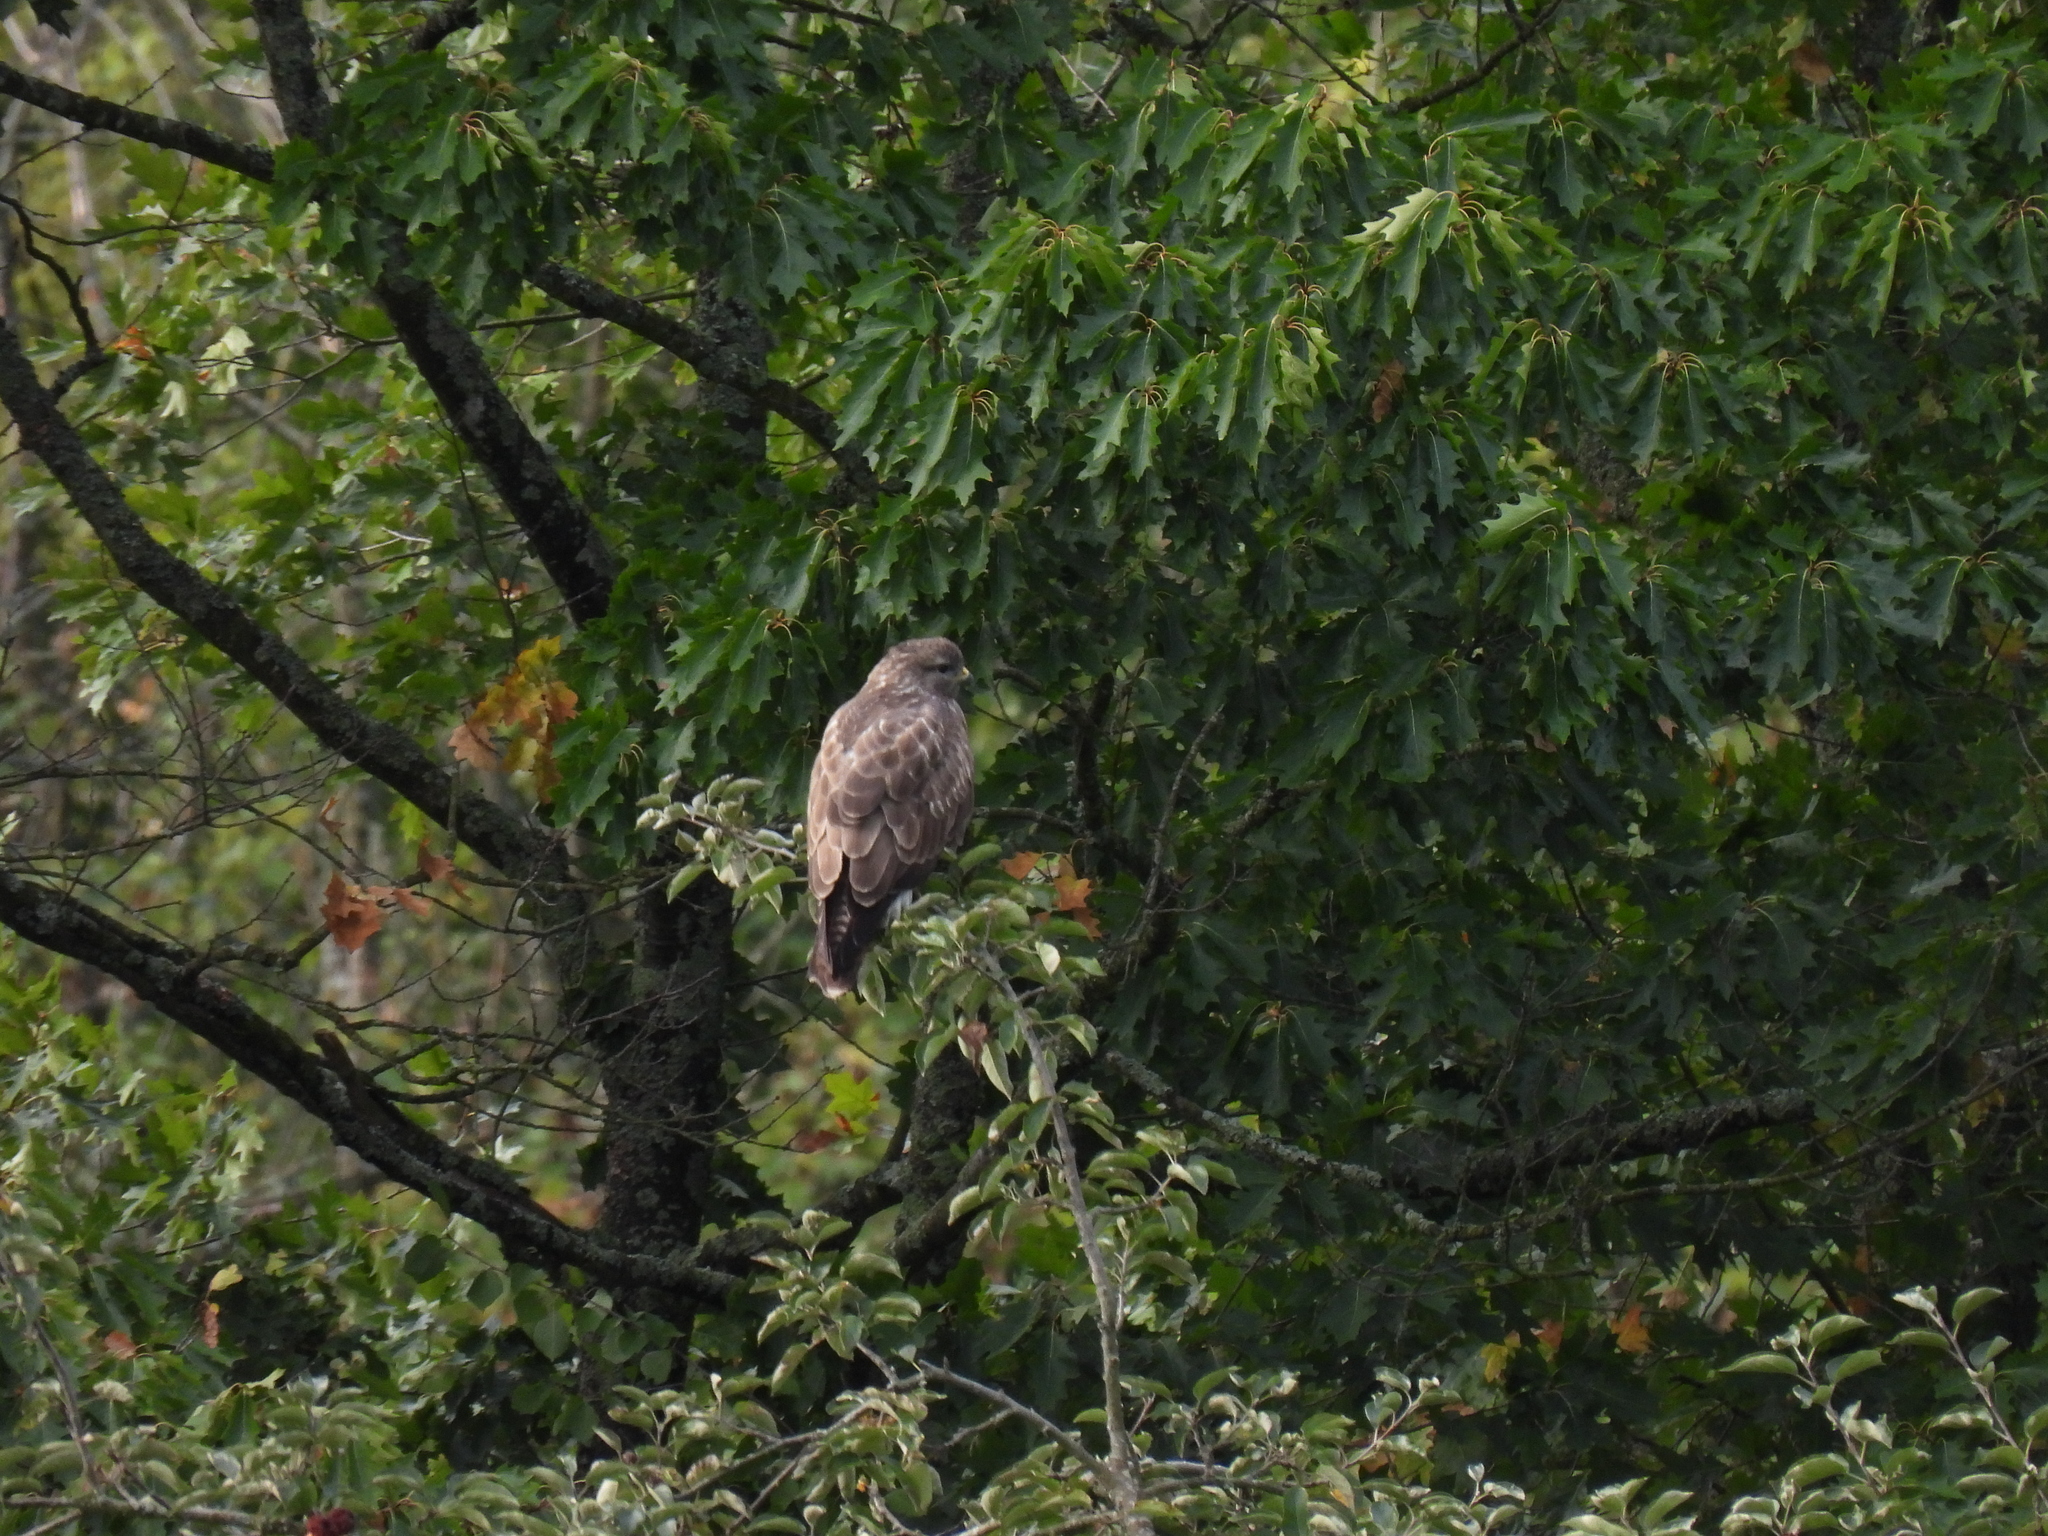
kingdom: Animalia
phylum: Chordata
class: Aves
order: Accipitriformes
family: Accipitridae
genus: Buteo
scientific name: Buteo buteo
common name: Common buzzard
